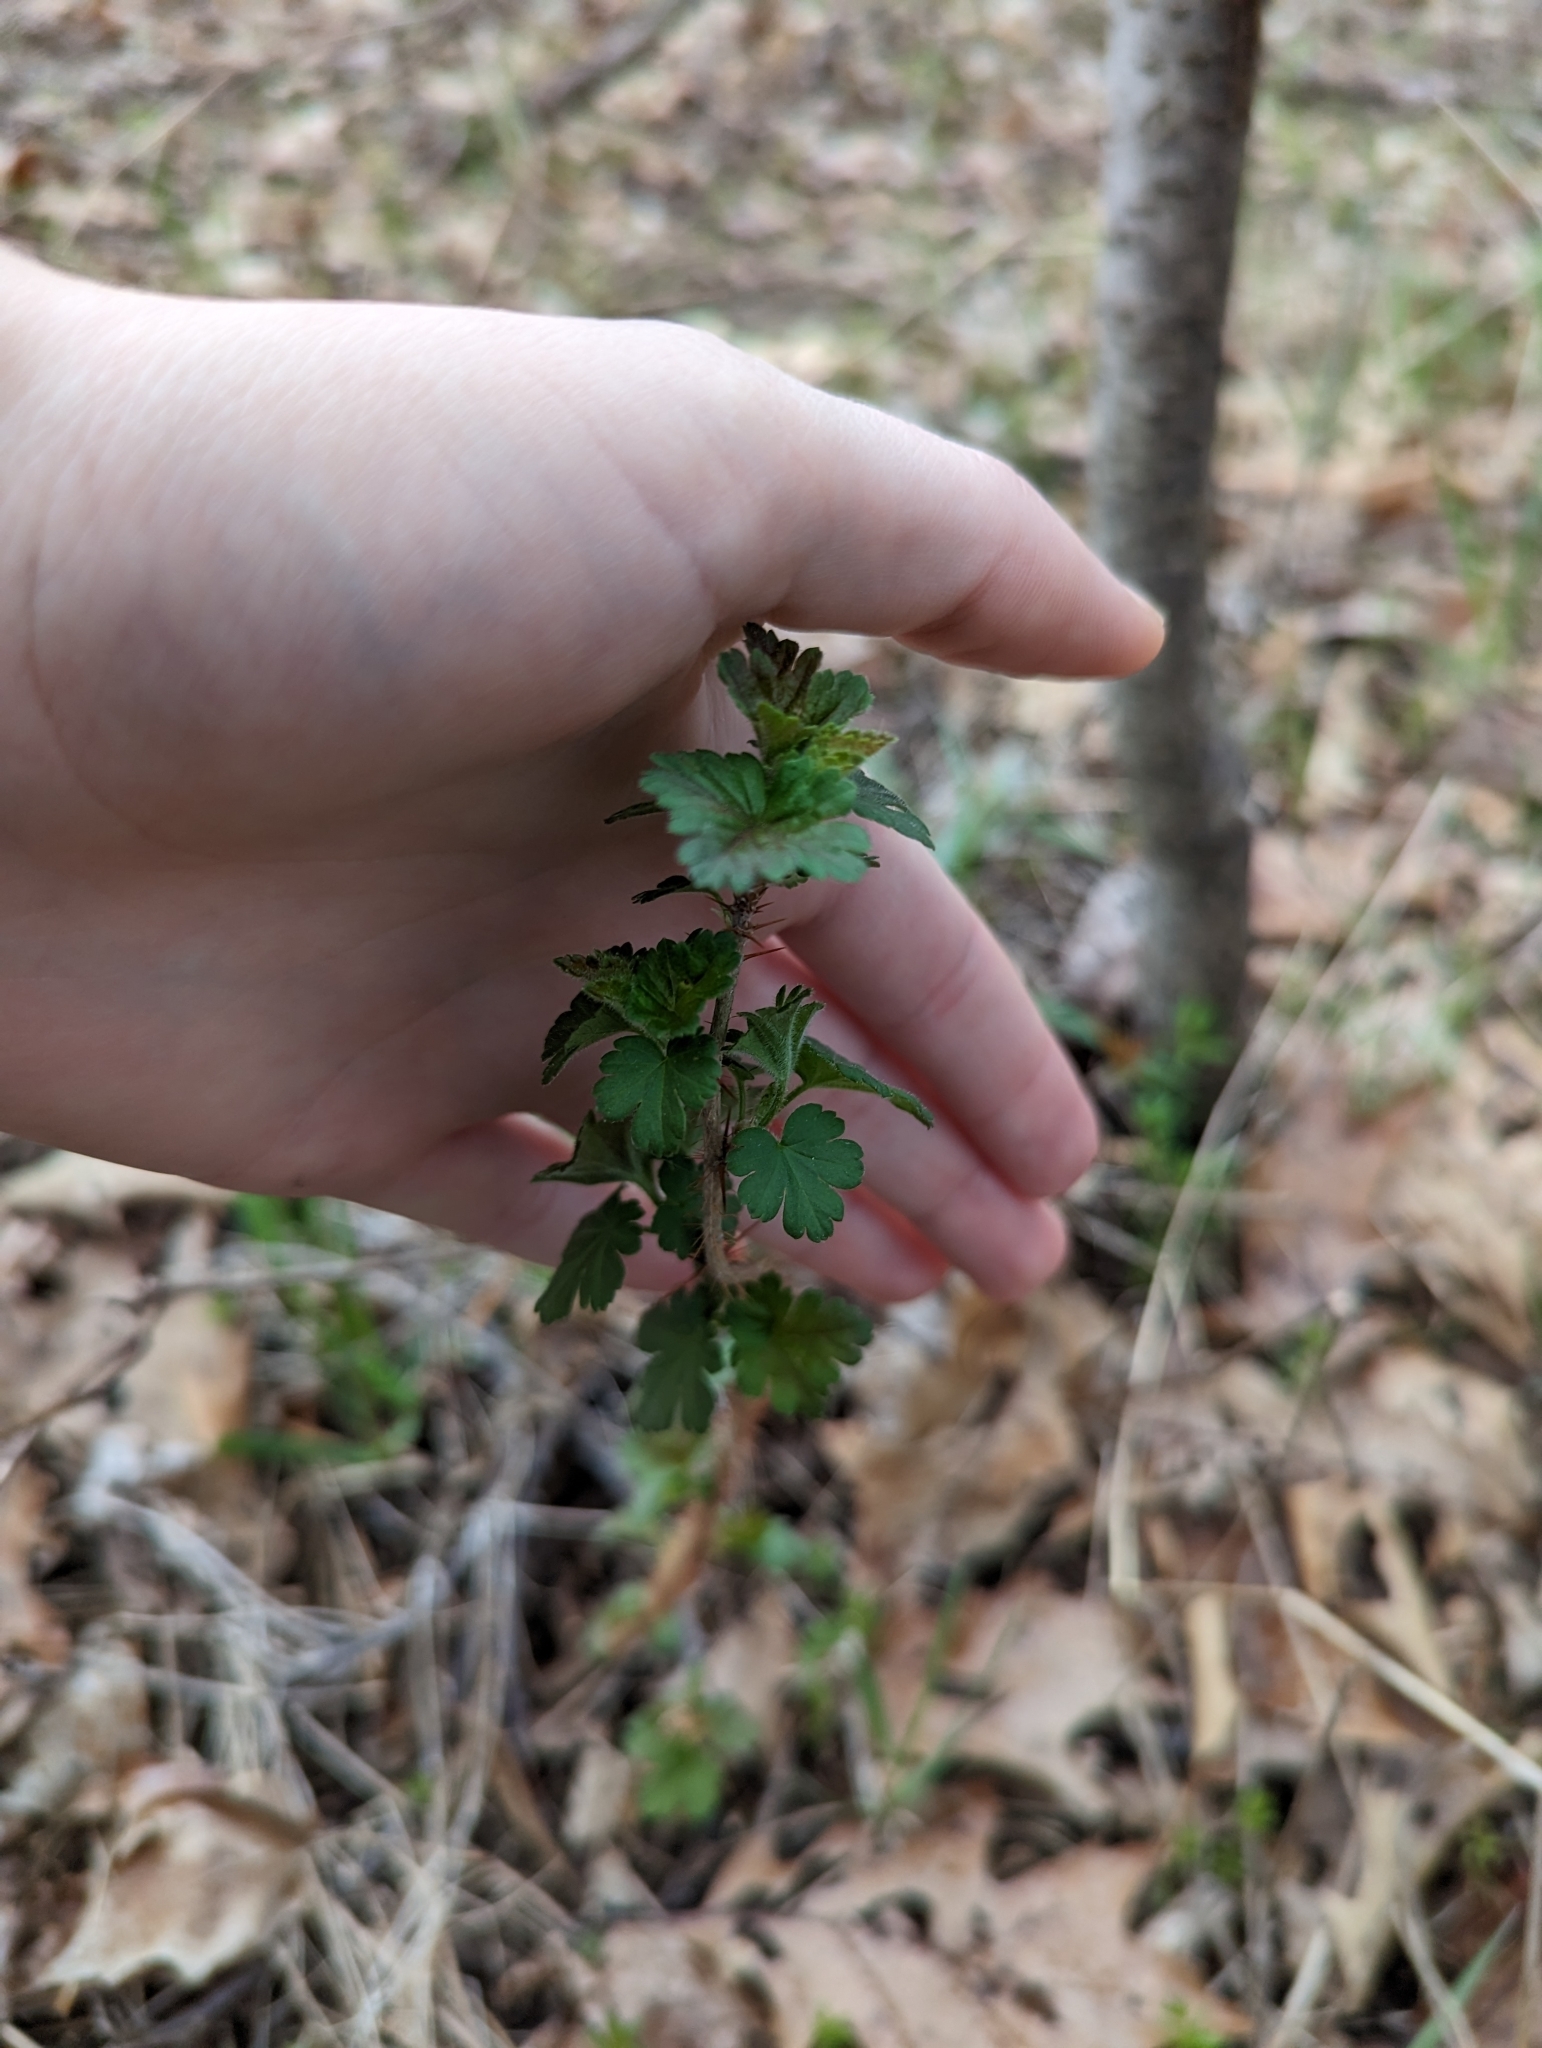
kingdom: Plantae
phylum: Tracheophyta
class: Magnoliopsida
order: Saxifragales
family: Grossulariaceae
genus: Ribes
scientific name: Ribes cynosbati
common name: American gooseberry
